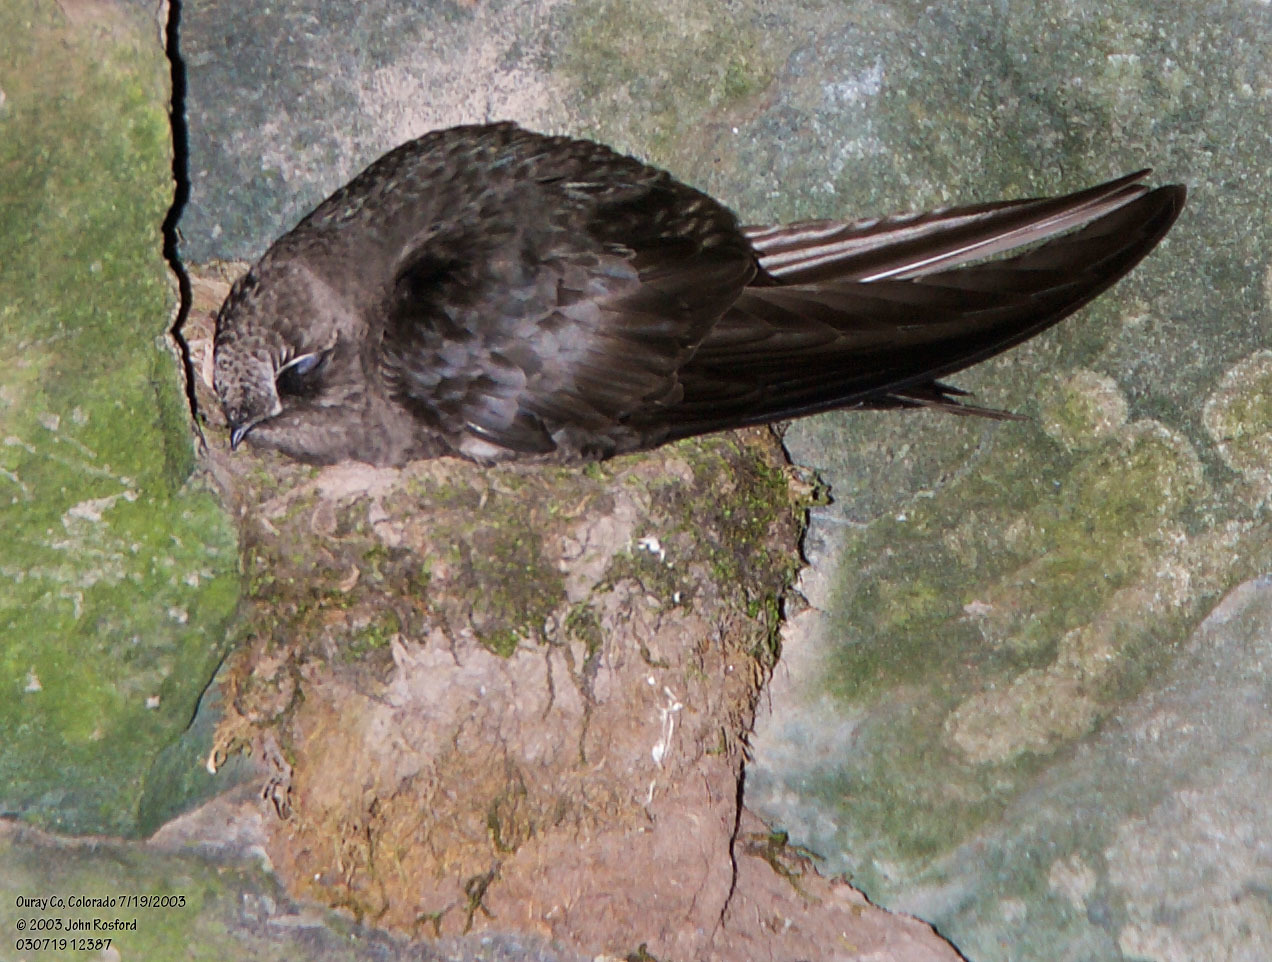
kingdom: Animalia
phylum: Chordata
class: Aves
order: Apodiformes
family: Apodidae
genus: Cypseloides
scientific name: Cypseloides niger
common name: Black swift
